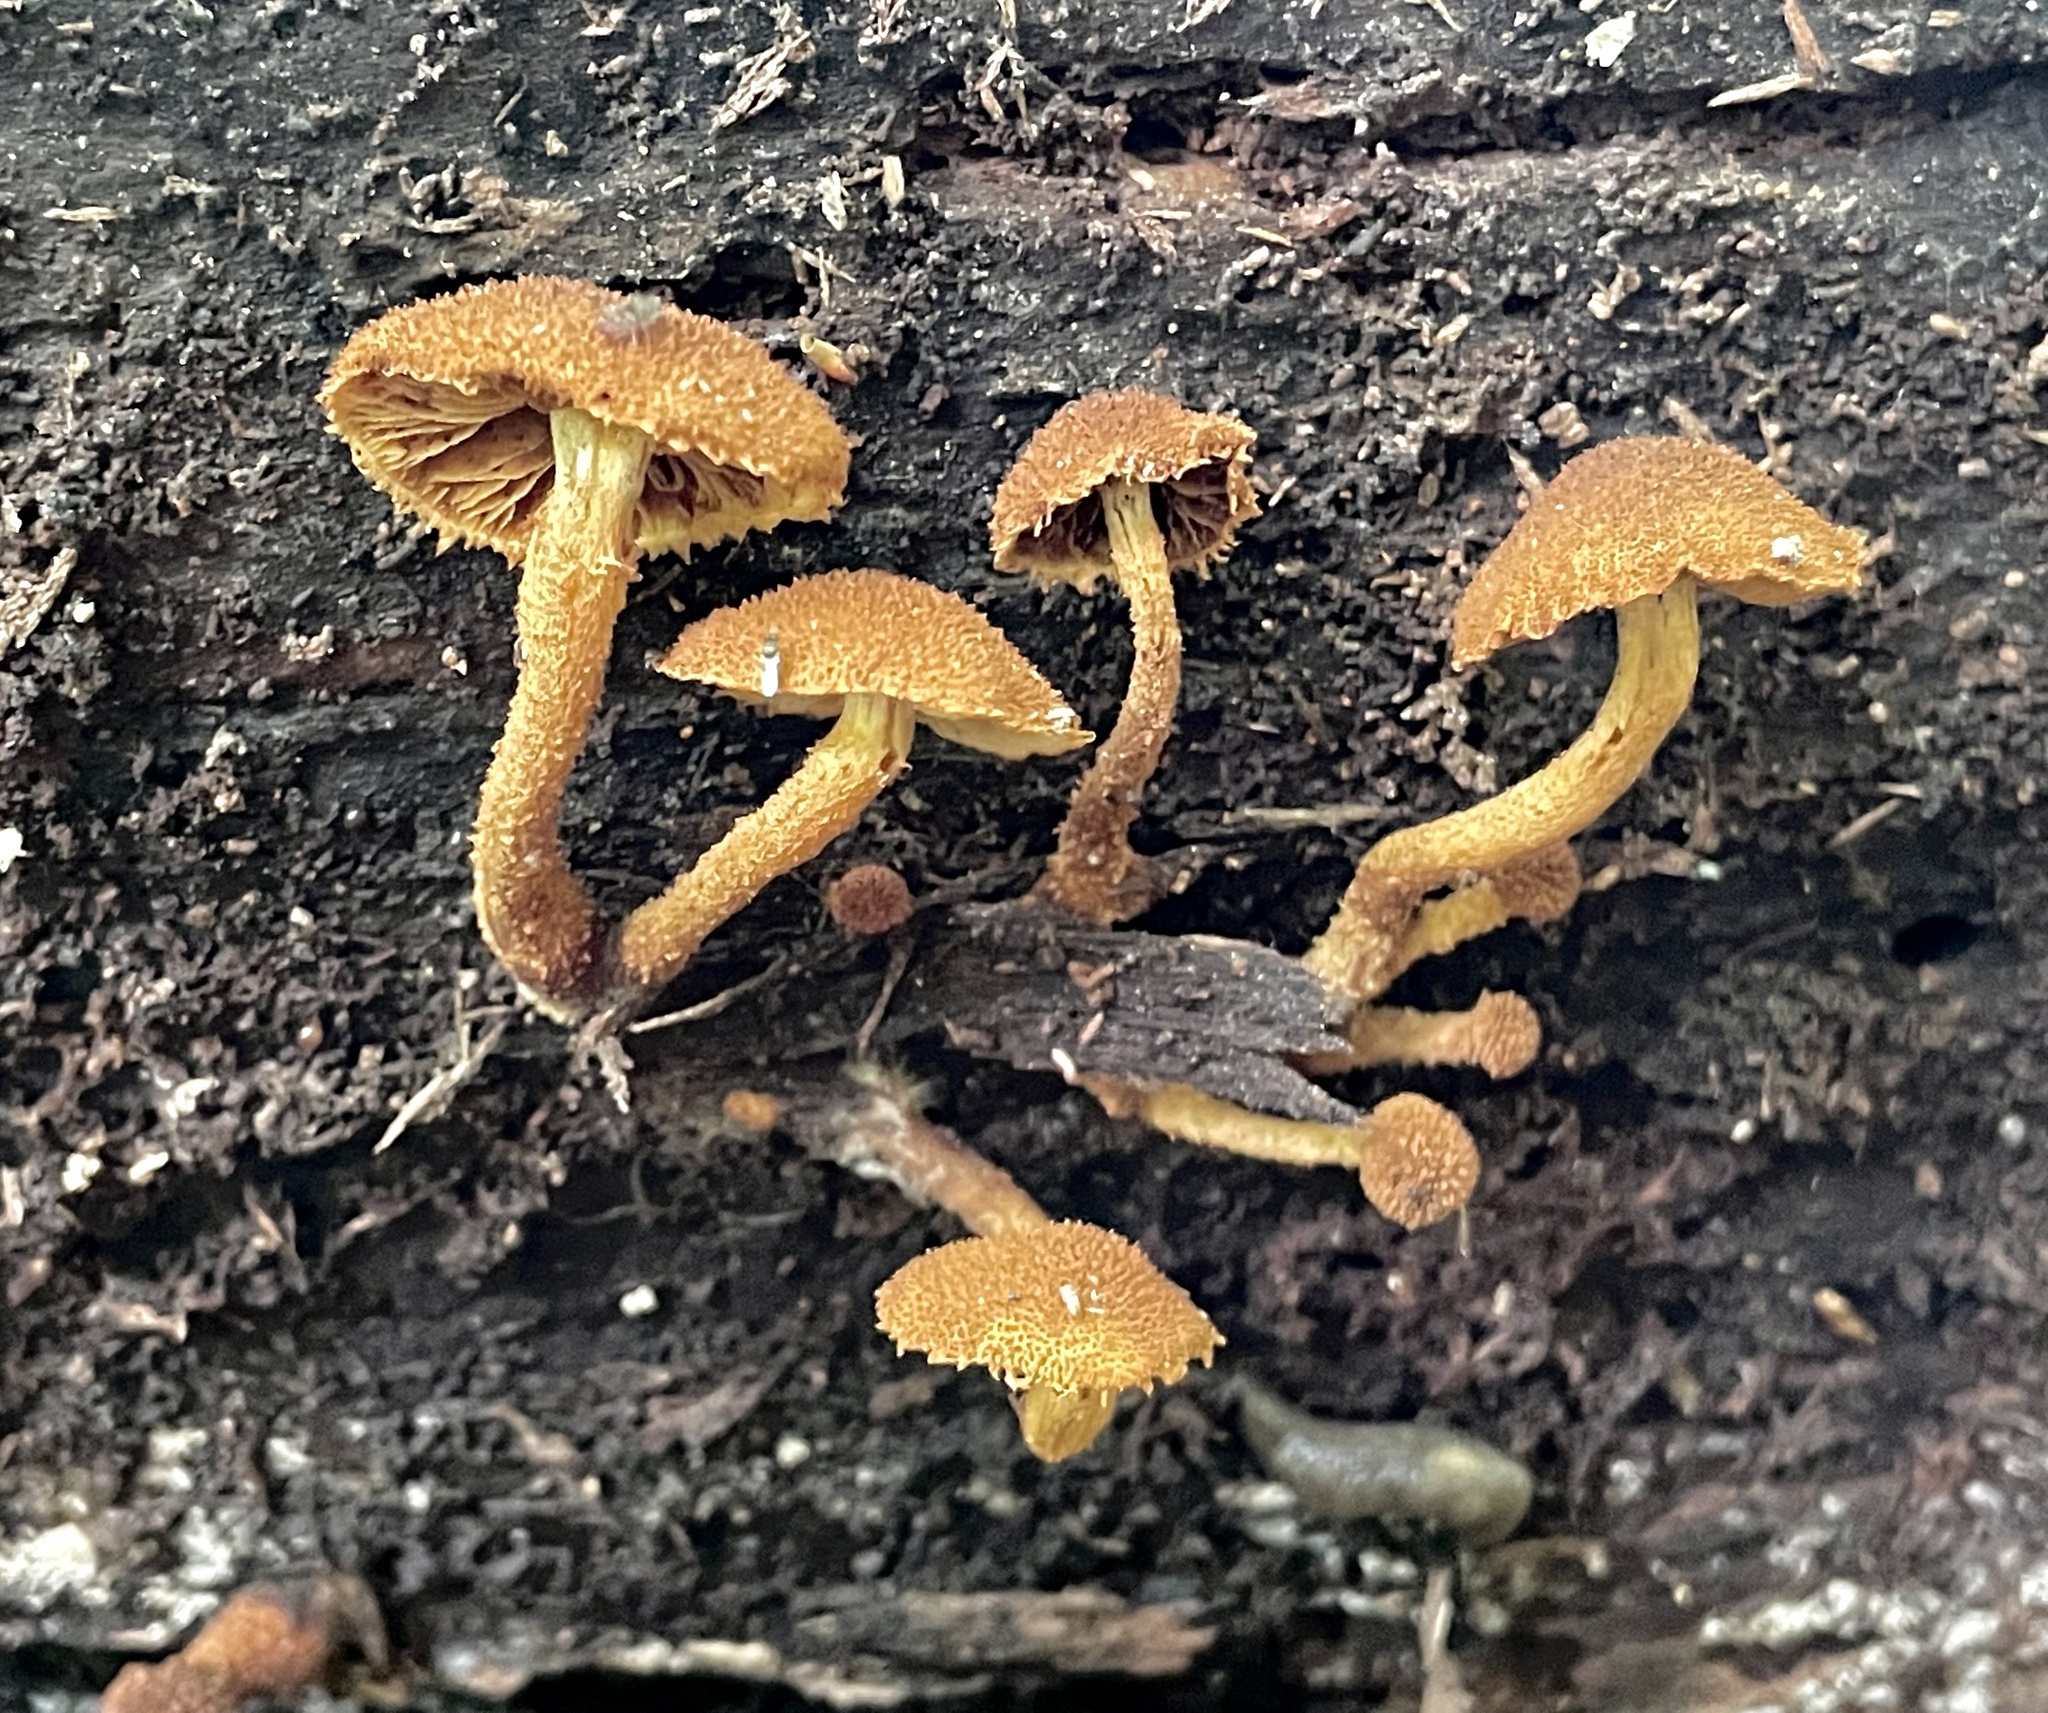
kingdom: Fungi
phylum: Basidiomycota
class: Agaricomycetes
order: Agaricales
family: Tubariaceae
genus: Flammulaster
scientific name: Flammulaster erinaceellus
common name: Powder-scale pholiota
